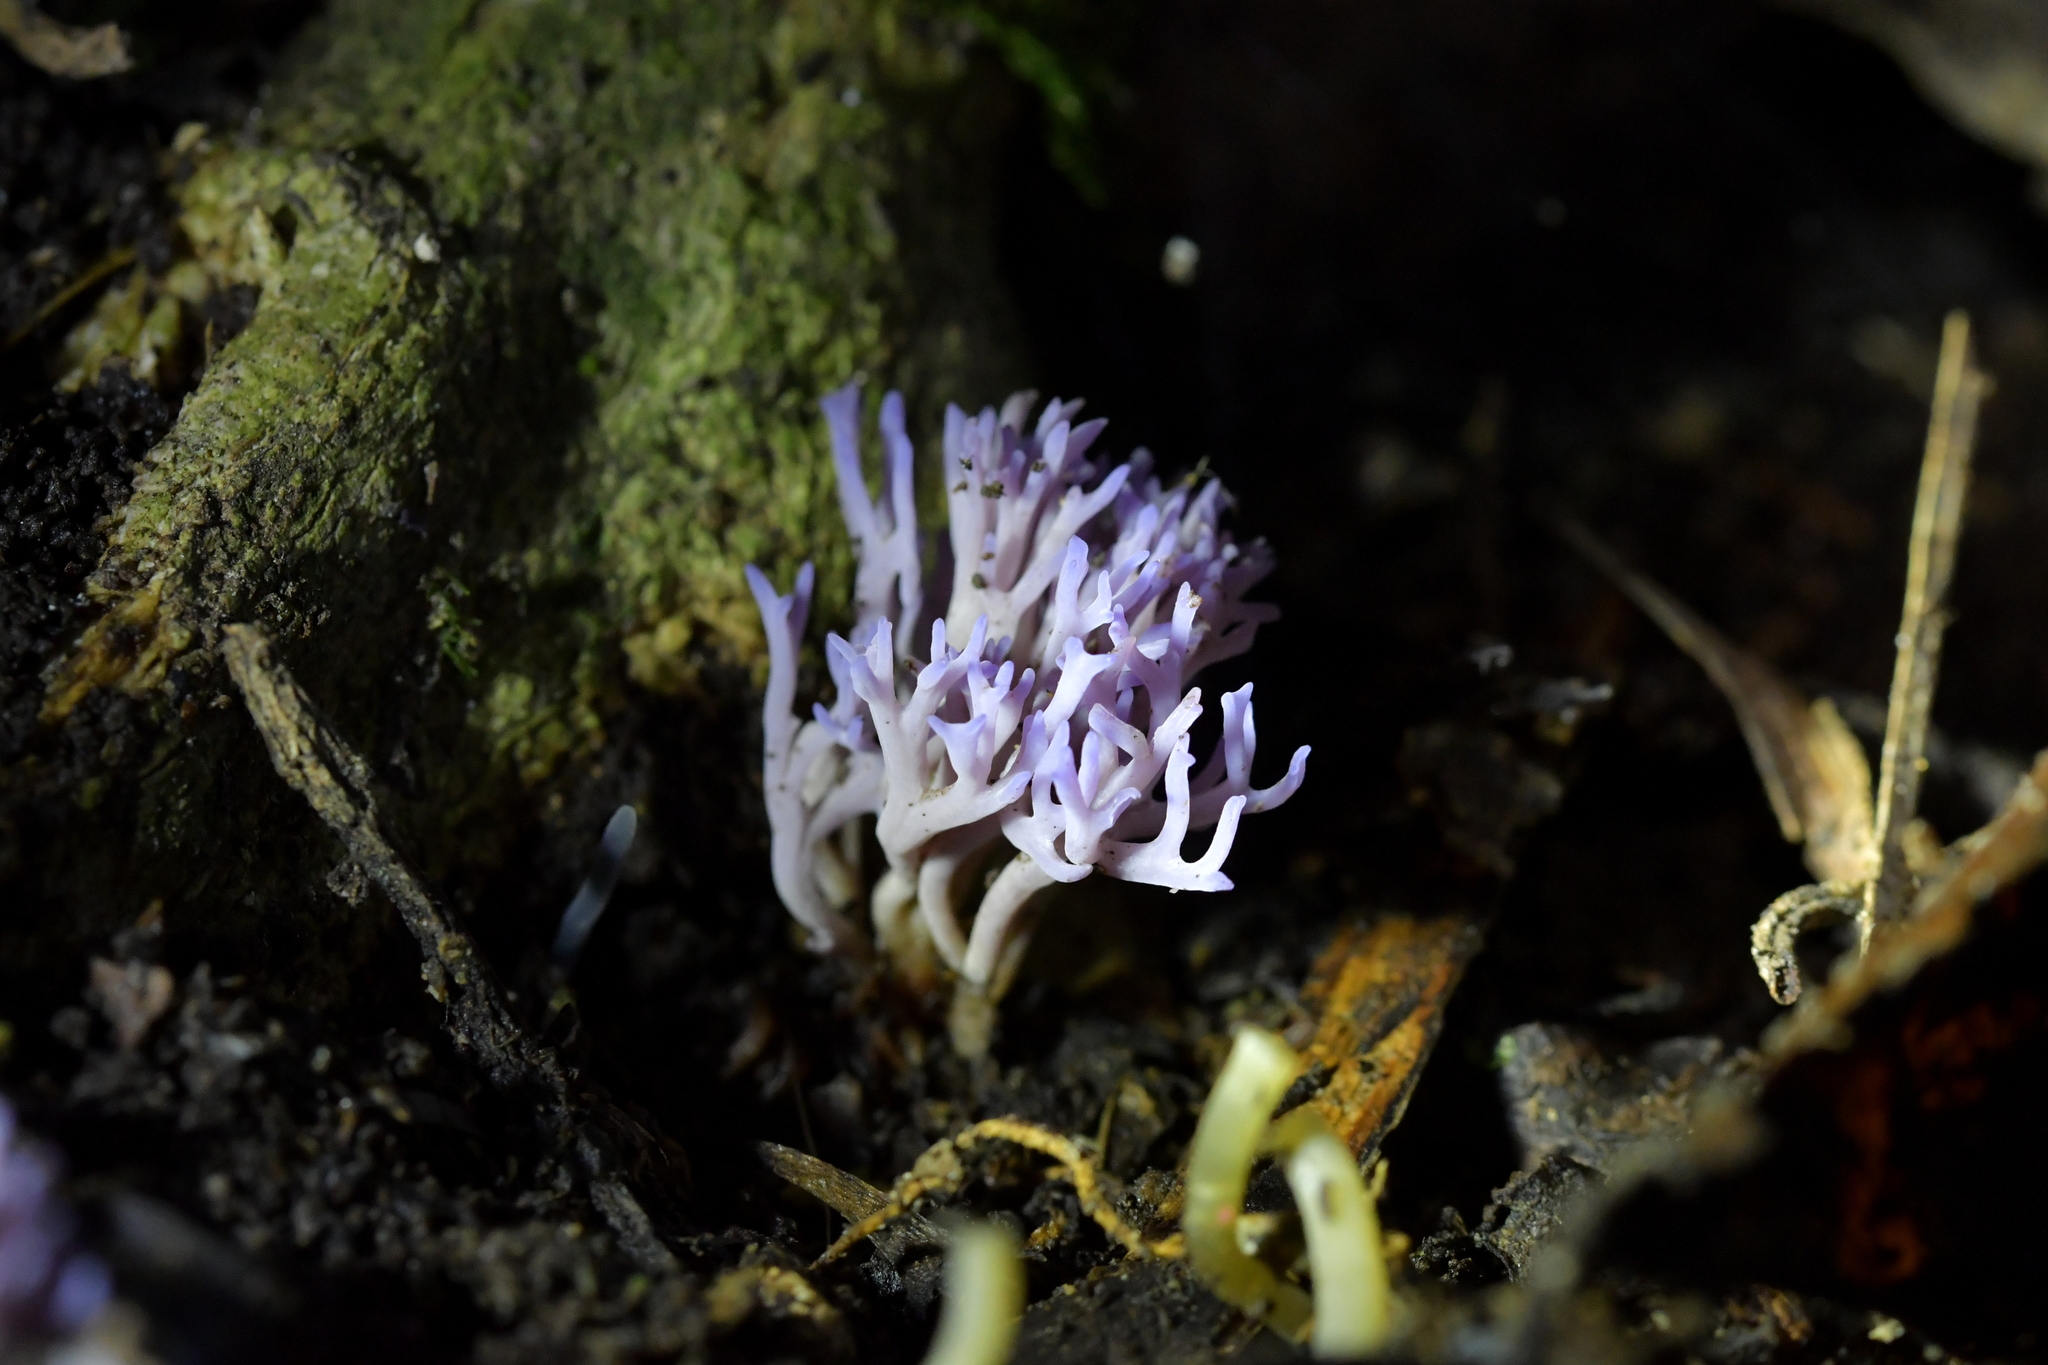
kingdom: Fungi
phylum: Basidiomycota
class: Agaricomycetes
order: Agaricales
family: Clavariaceae
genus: Ramariopsis
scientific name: Ramariopsis pulchella
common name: Lilac coral
